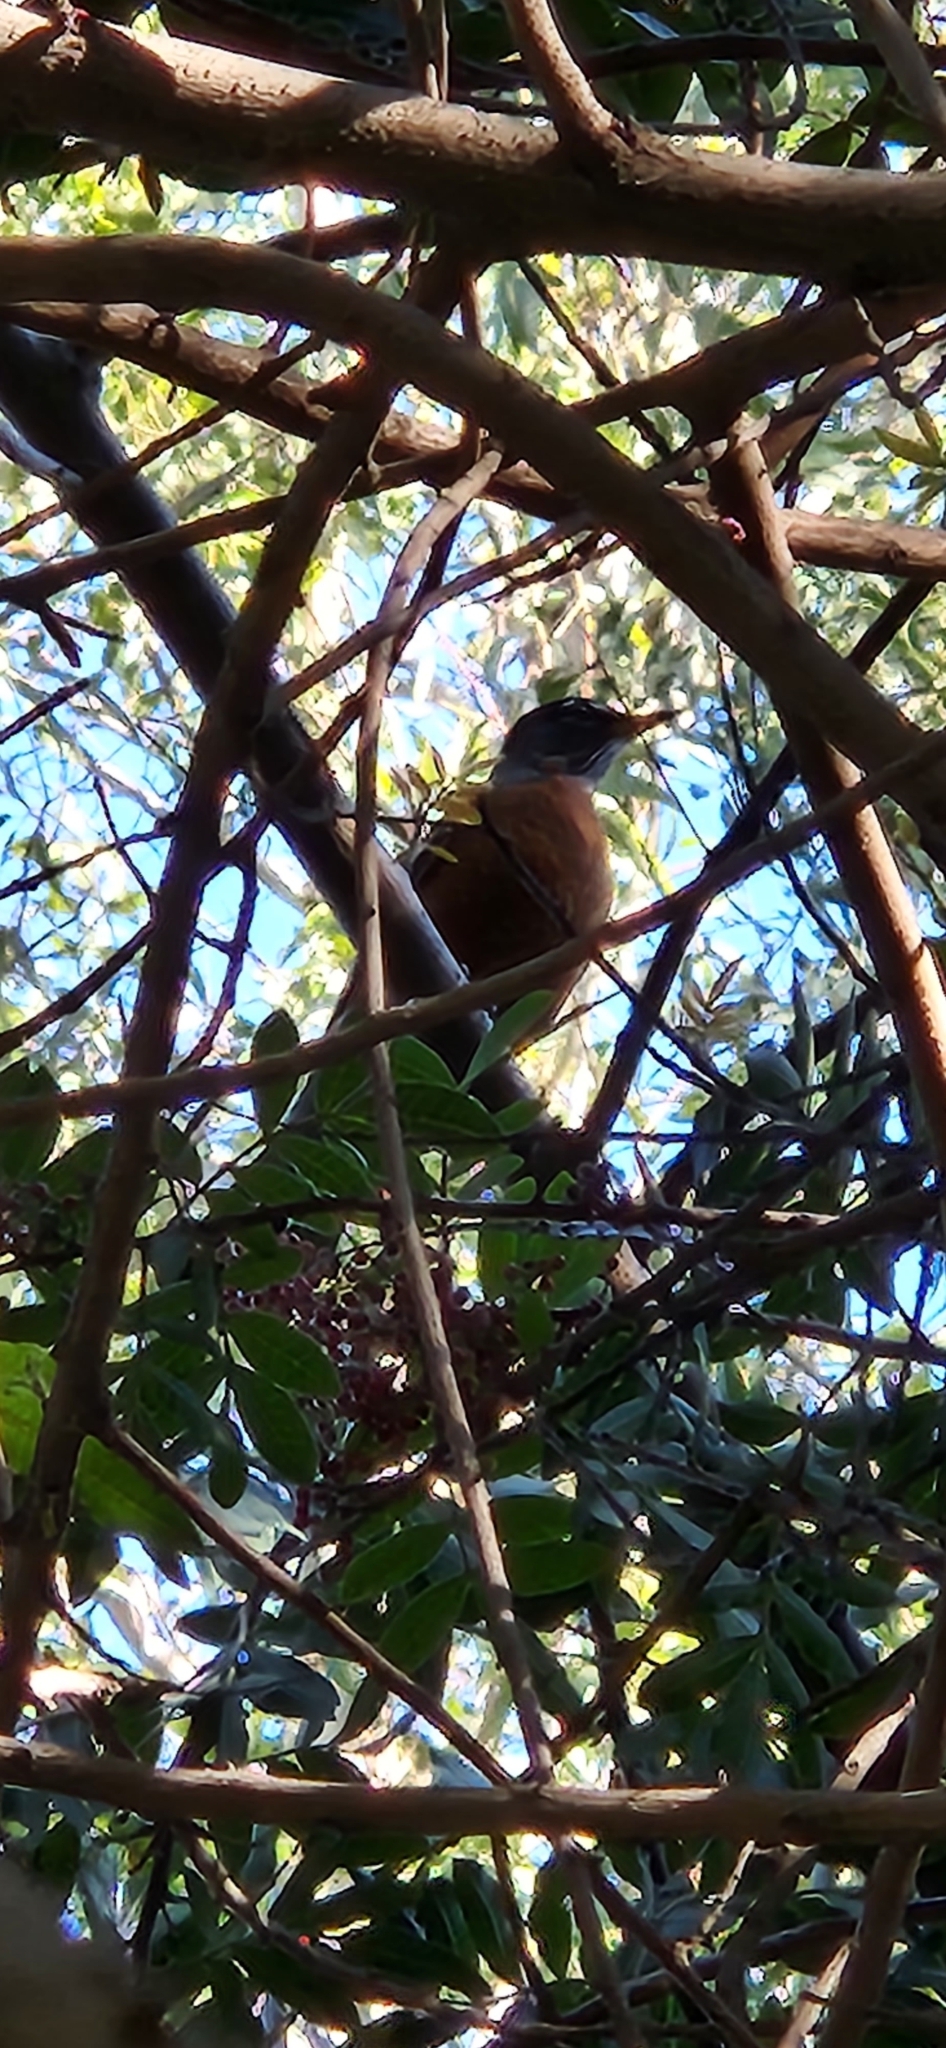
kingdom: Animalia
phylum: Chordata
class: Aves
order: Passeriformes
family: Turdidae
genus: Turdus
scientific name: Turdus migratorius
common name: American robin
